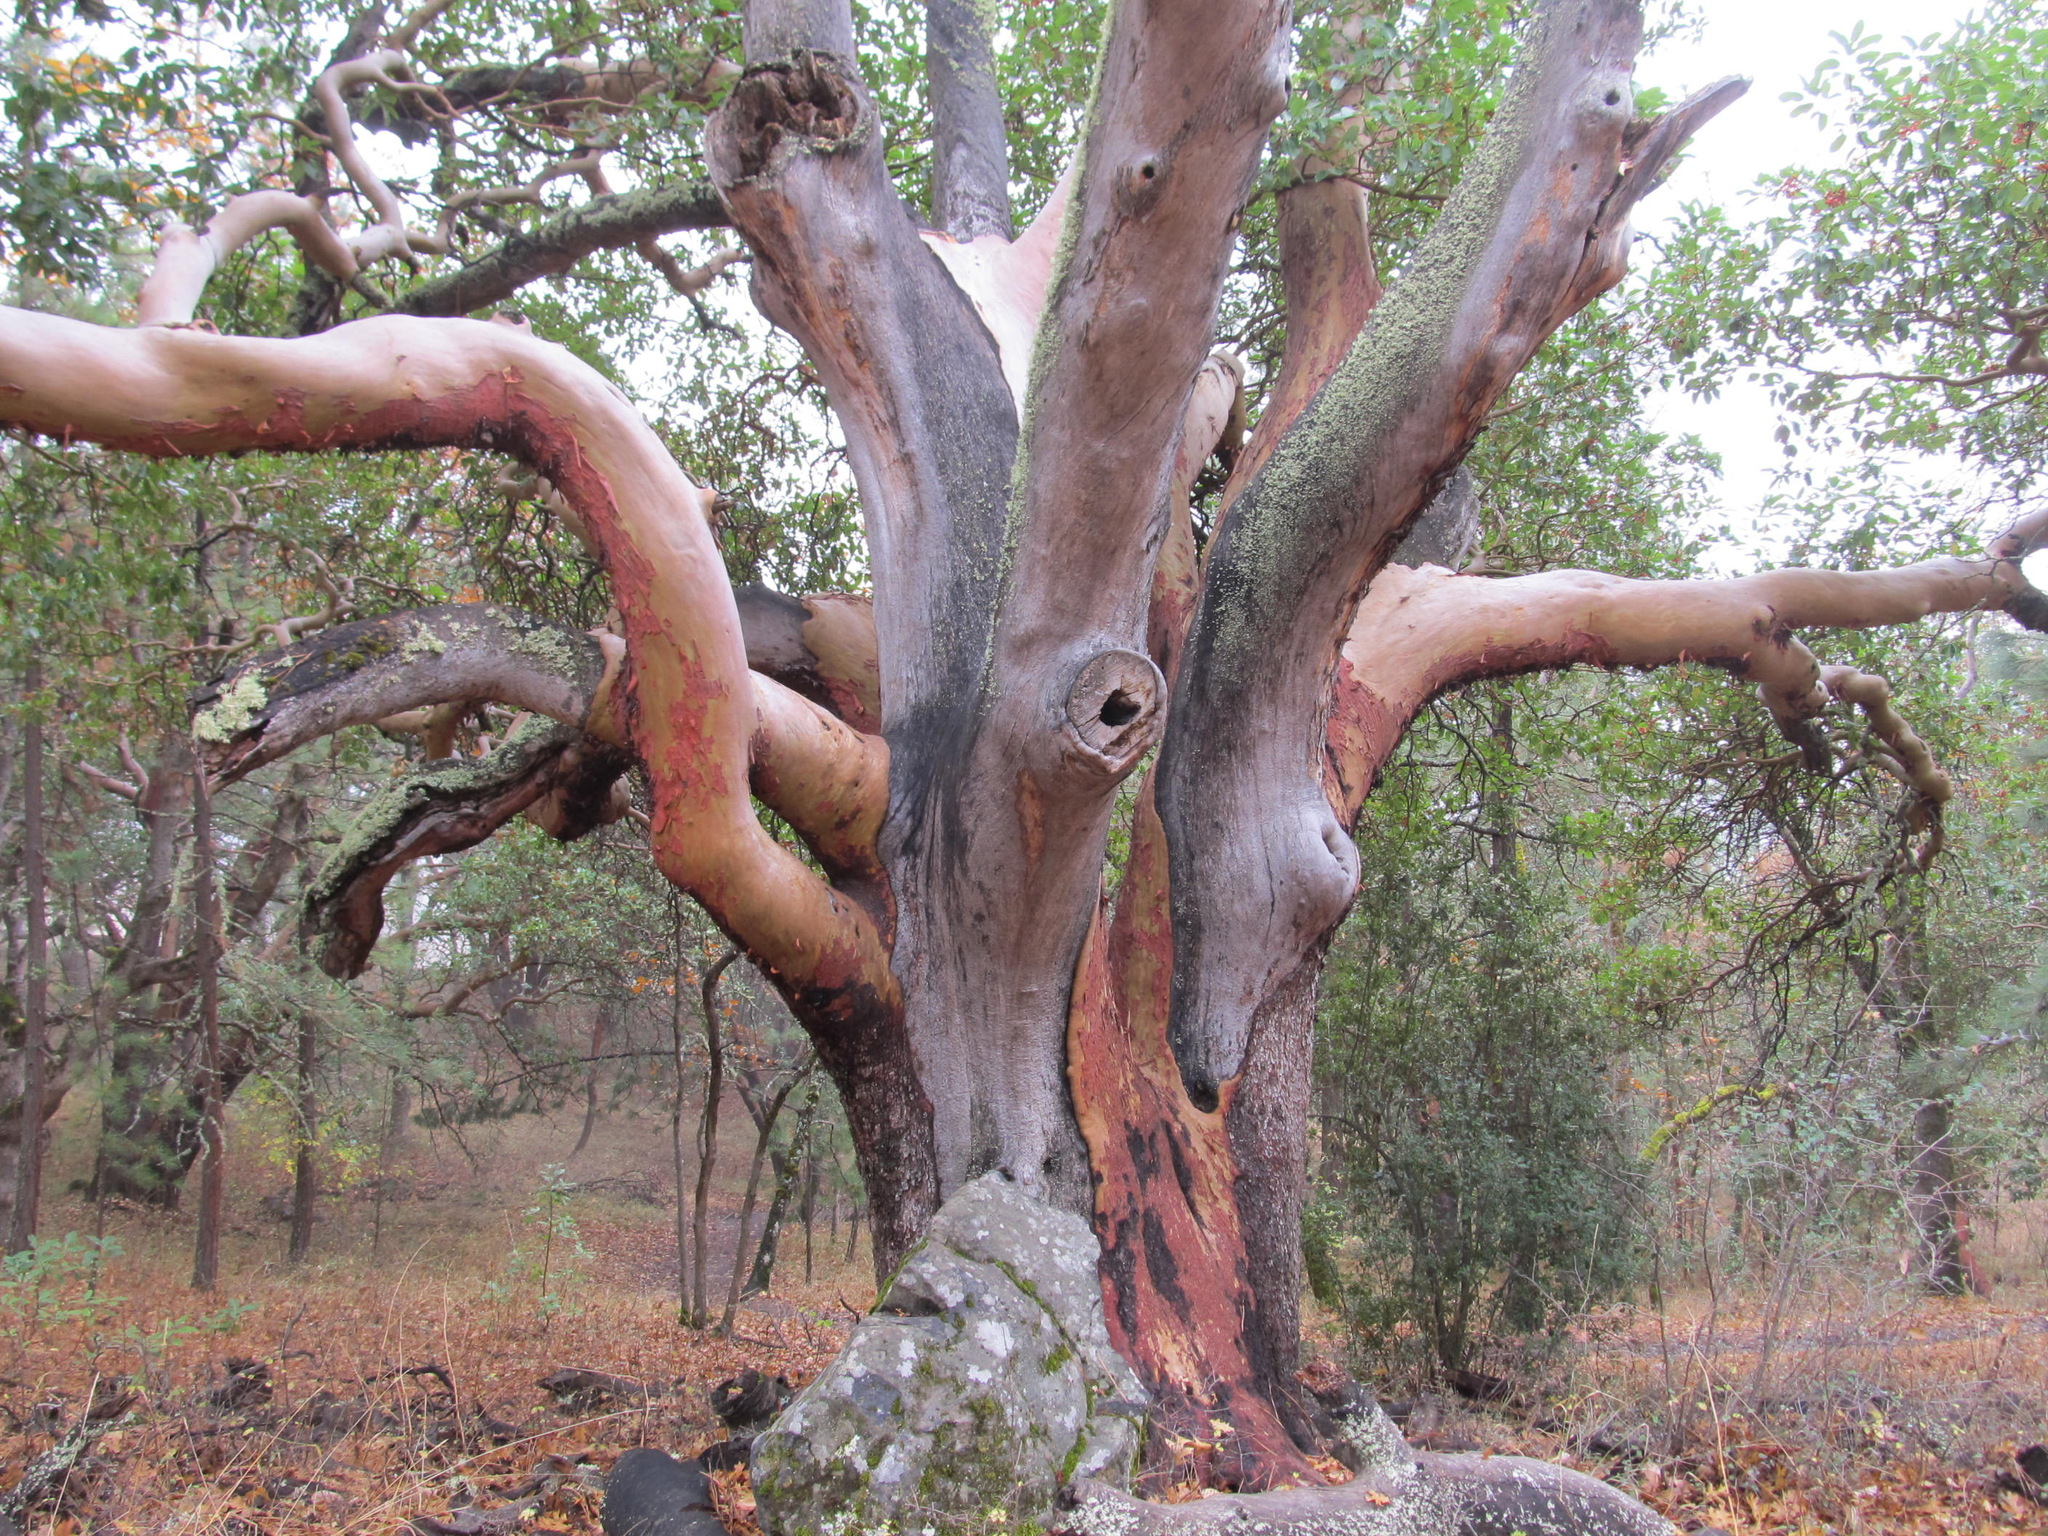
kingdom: Plantae
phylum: Tracheophyta
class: Magnoliopsida
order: Ericales
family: Ericaceae
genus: Arbutus
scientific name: Arbutus menziesii
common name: Pacific madrone
